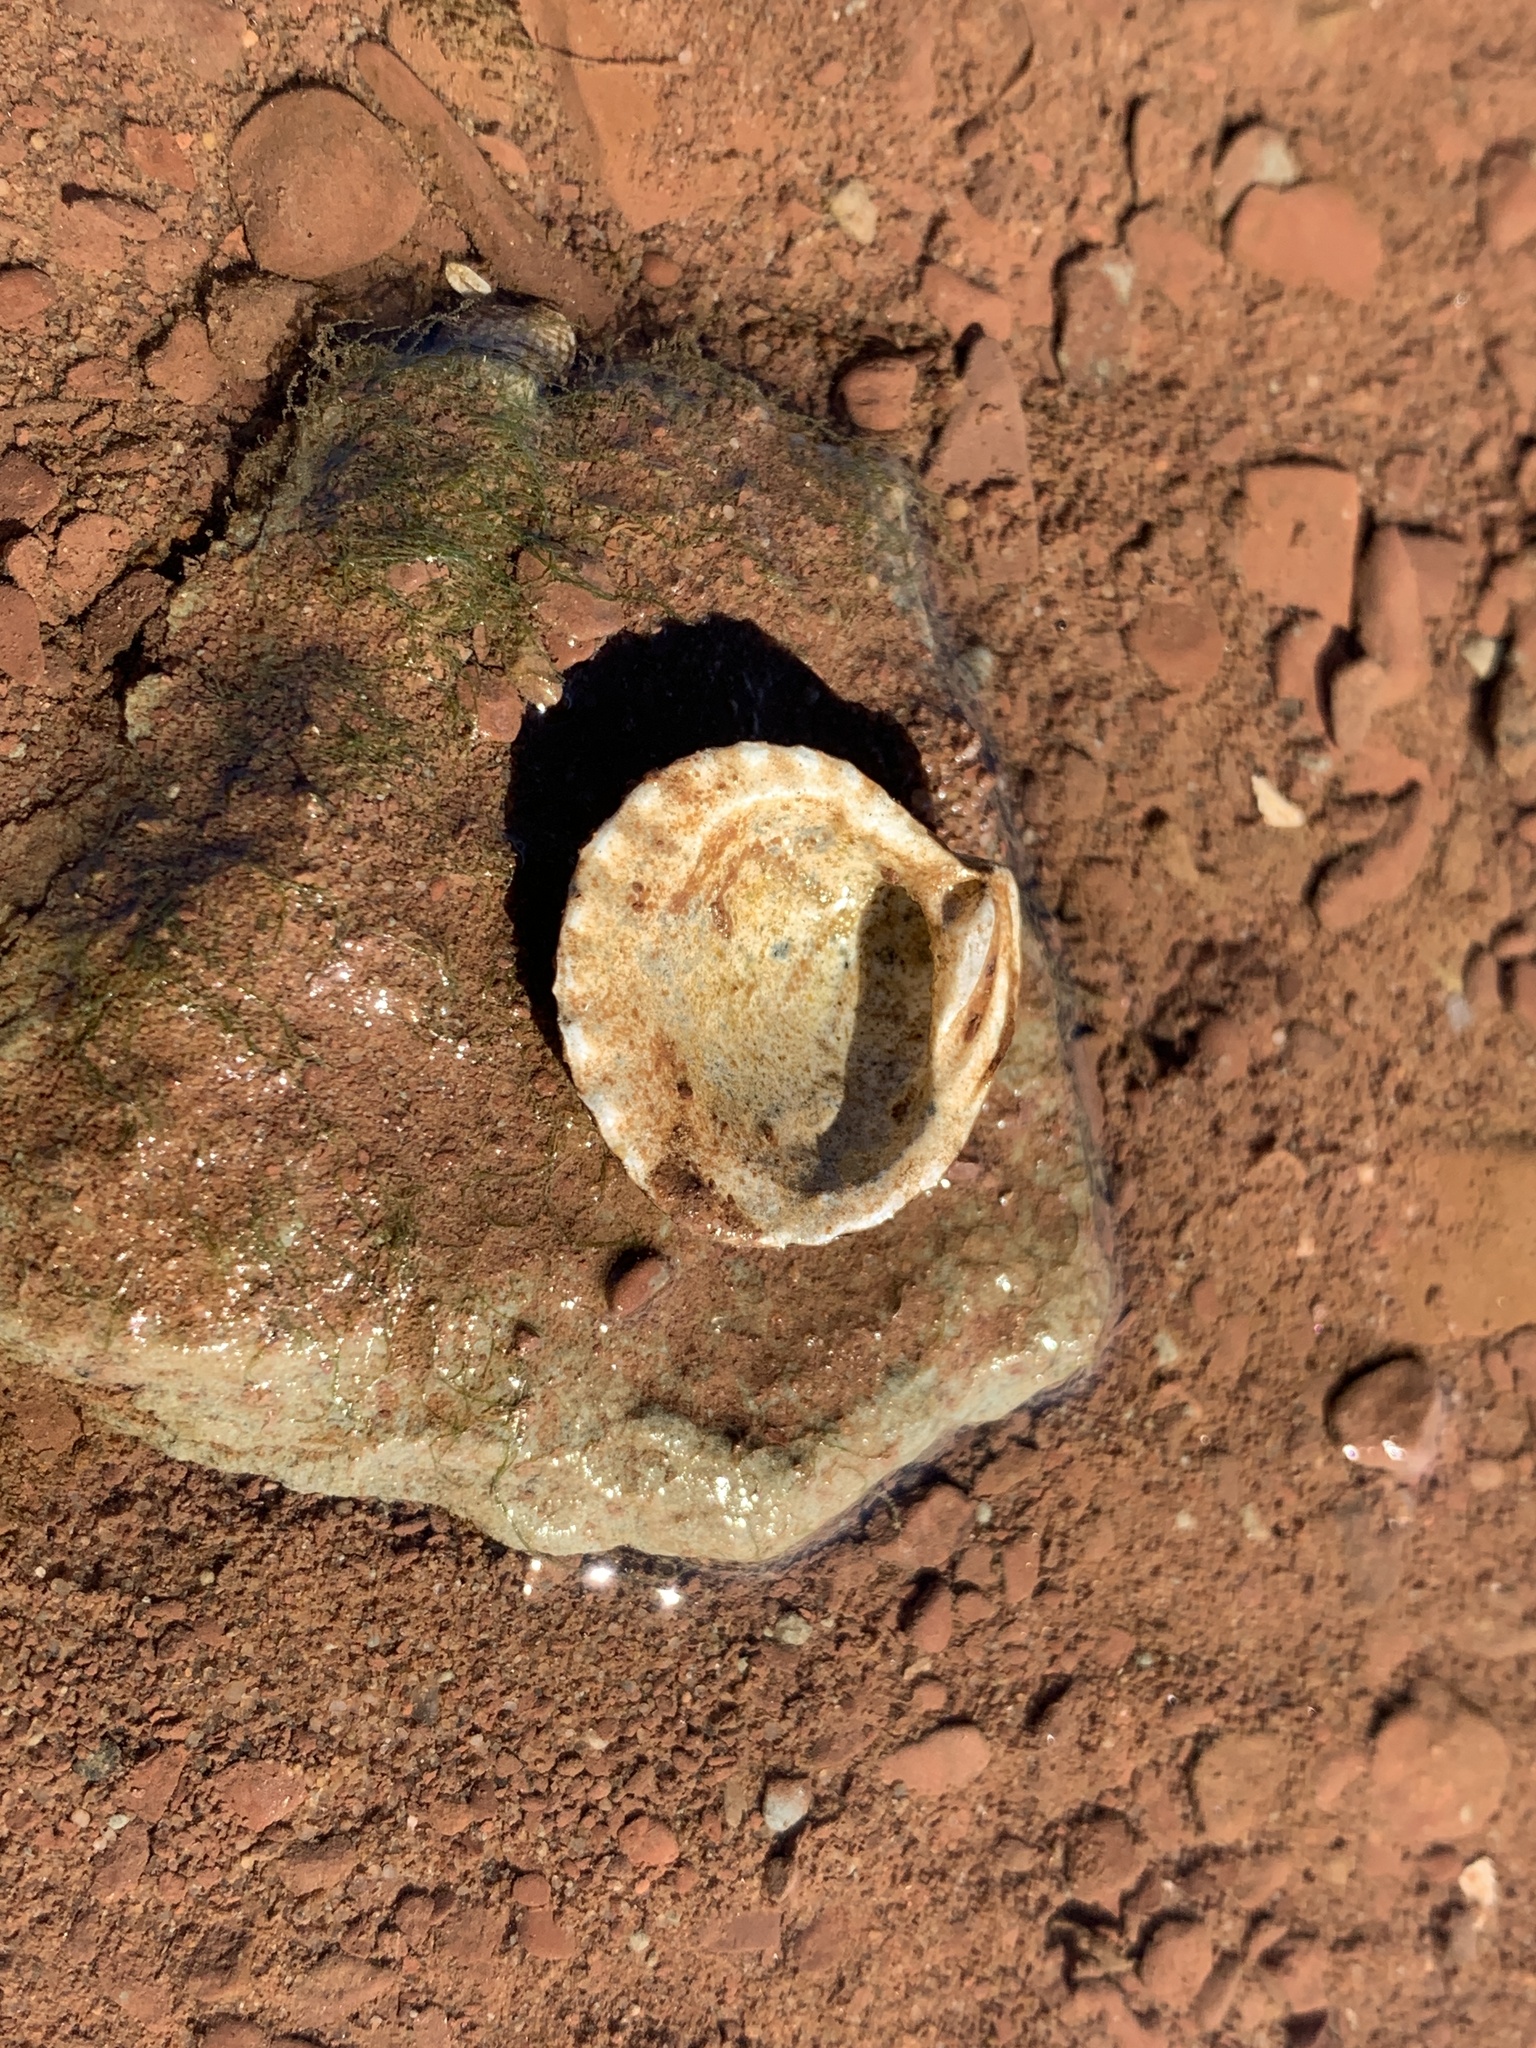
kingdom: Animalia
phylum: Mollusca
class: Bivalvia
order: Carditida
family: Carditidae
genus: Cyclocardia
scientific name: Cyclocardia borealis
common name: Northern cyclocardia
